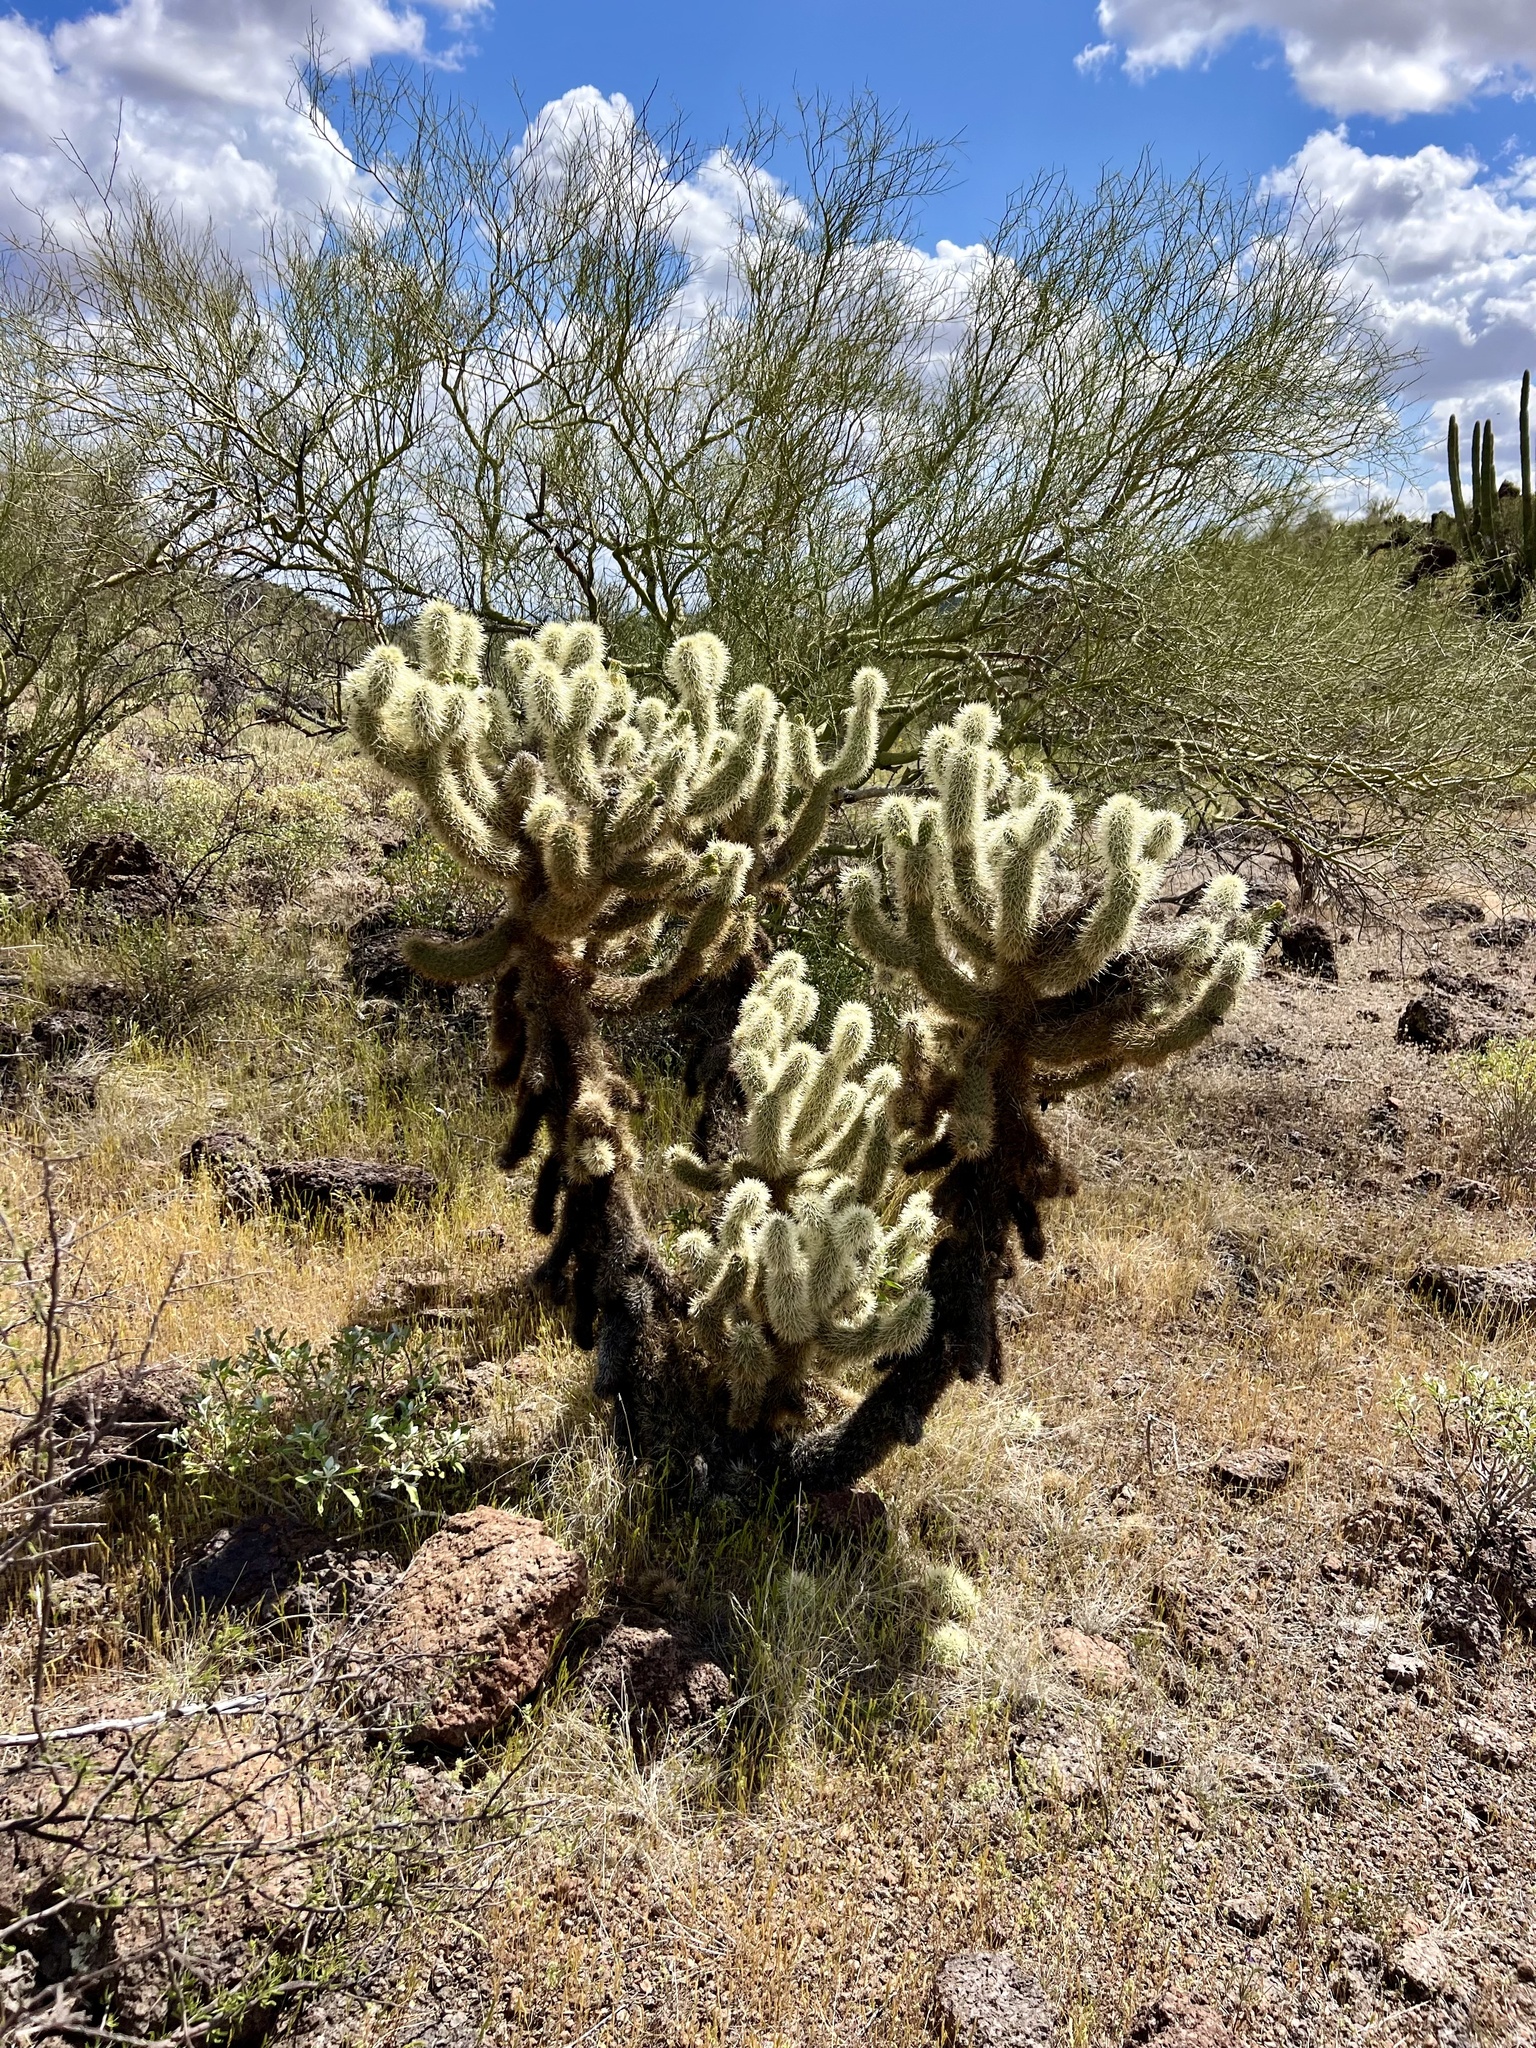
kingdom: Plantae
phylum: Tracheophyta
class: Magnoliopsida
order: Caryophyllales
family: Cactaceae
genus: Cylindropuntia
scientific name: Cylindropuntia fosbergii
